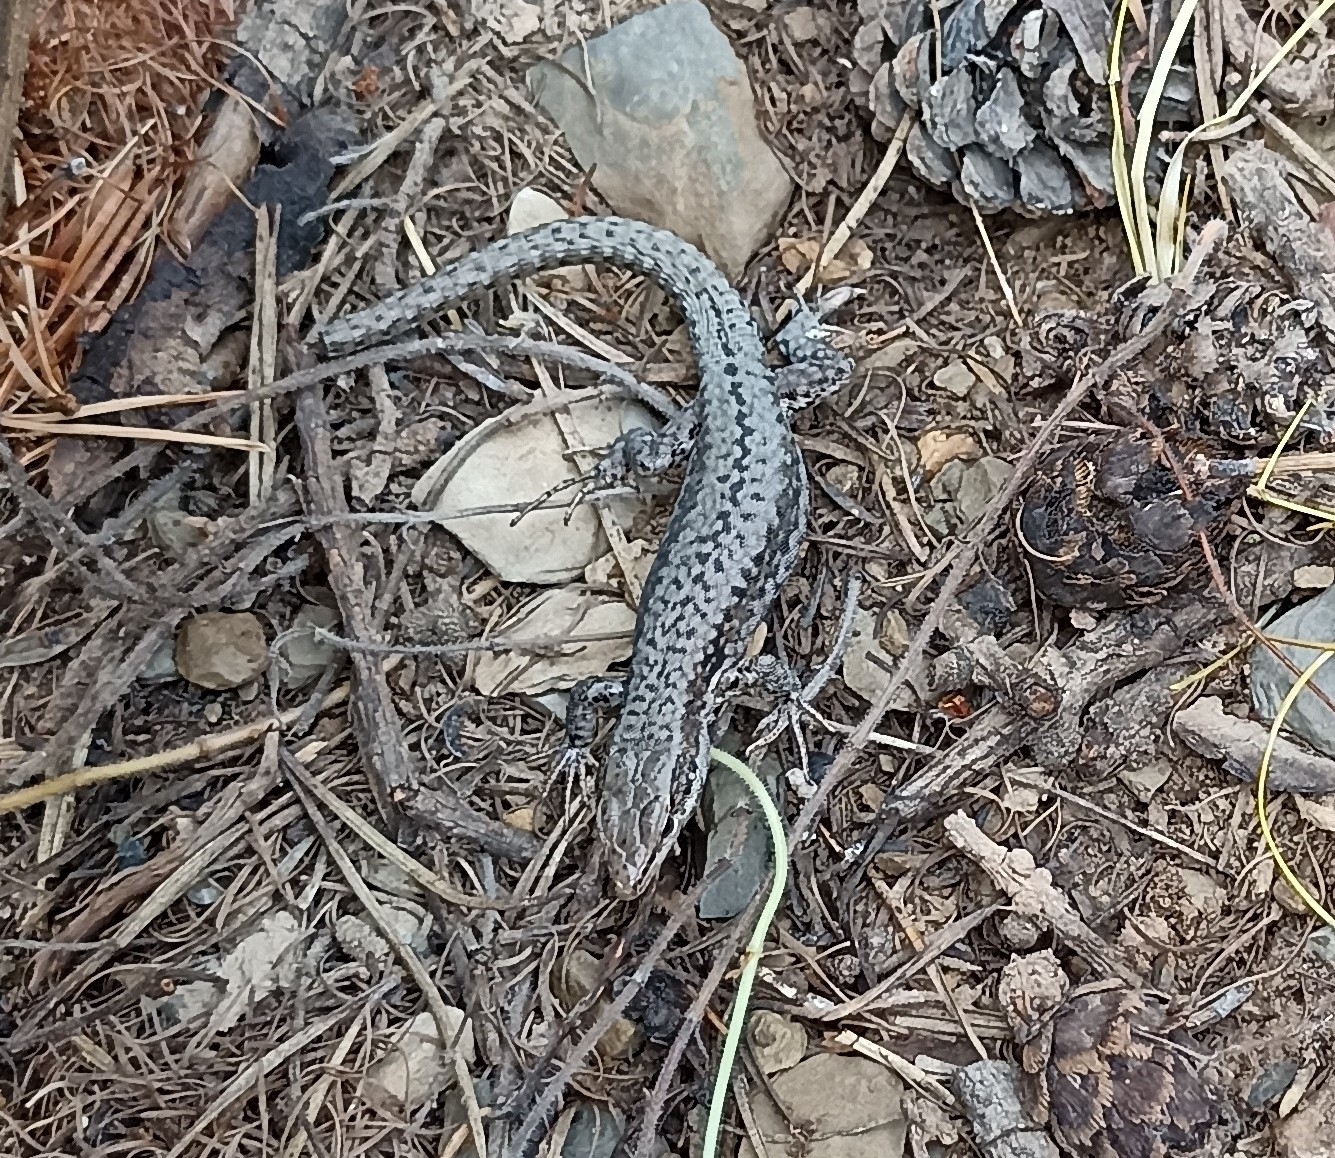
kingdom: Animalia
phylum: Chordata
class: Squamata
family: Lacertidae
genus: Podarcis
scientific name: Podarcis muralis
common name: Common wall lizard
